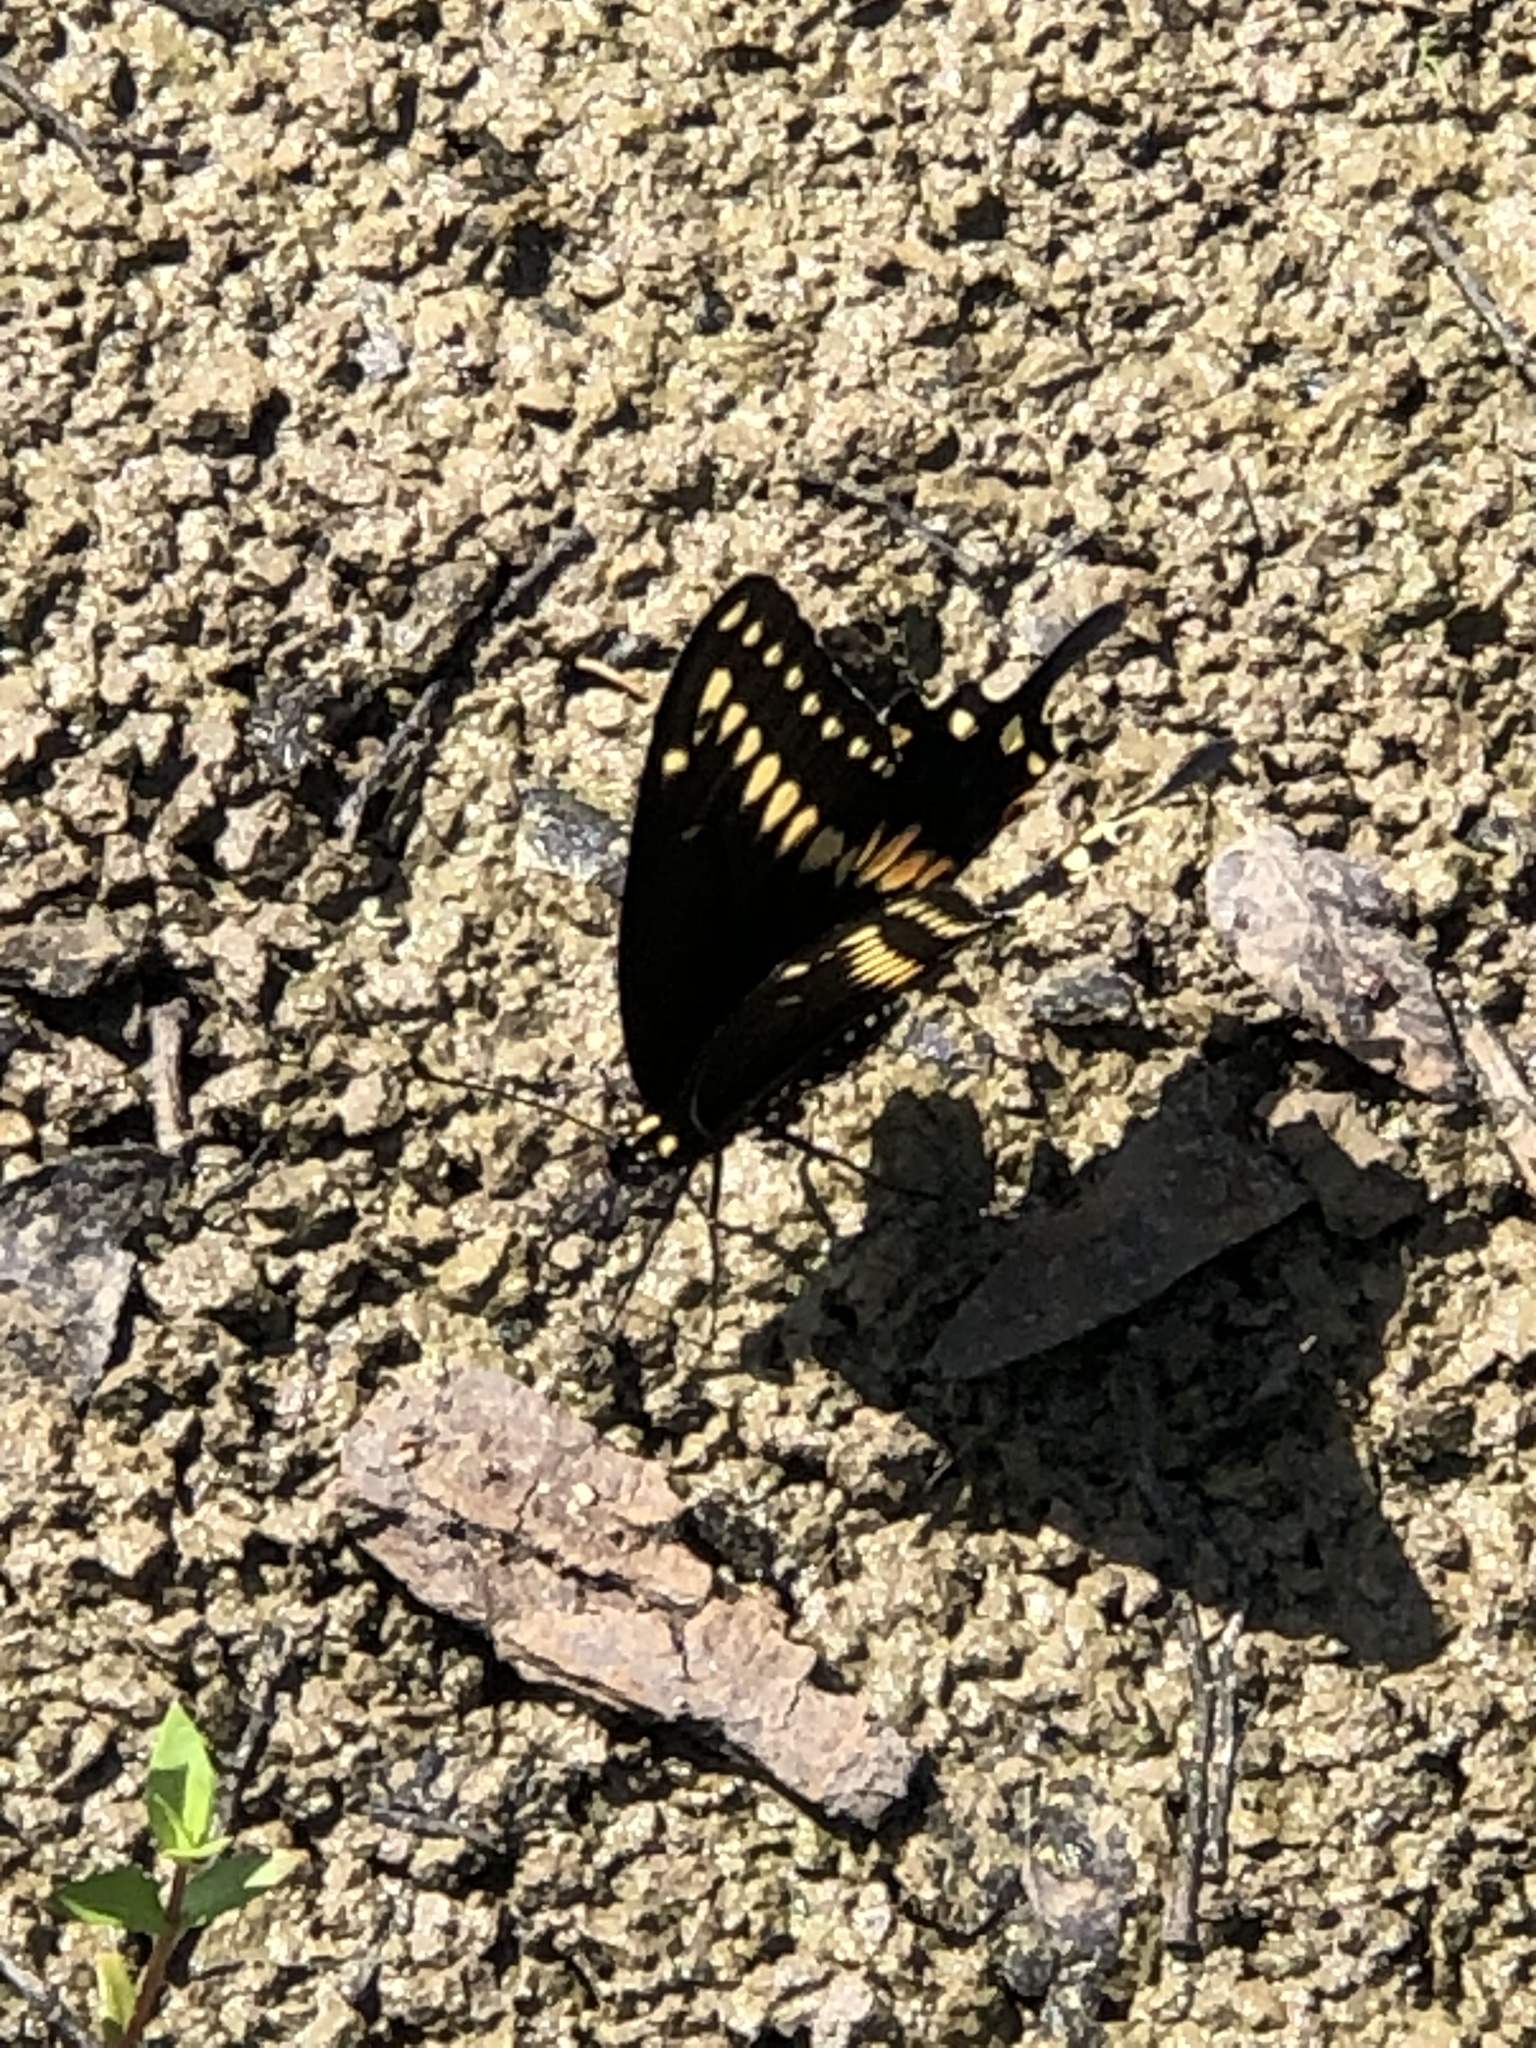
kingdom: Animalia
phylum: Arthropoda
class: Insecta
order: Lepidoptera
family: Papilionidae
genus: Papilio
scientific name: Papilio polyxenes
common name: Black swallowtail
